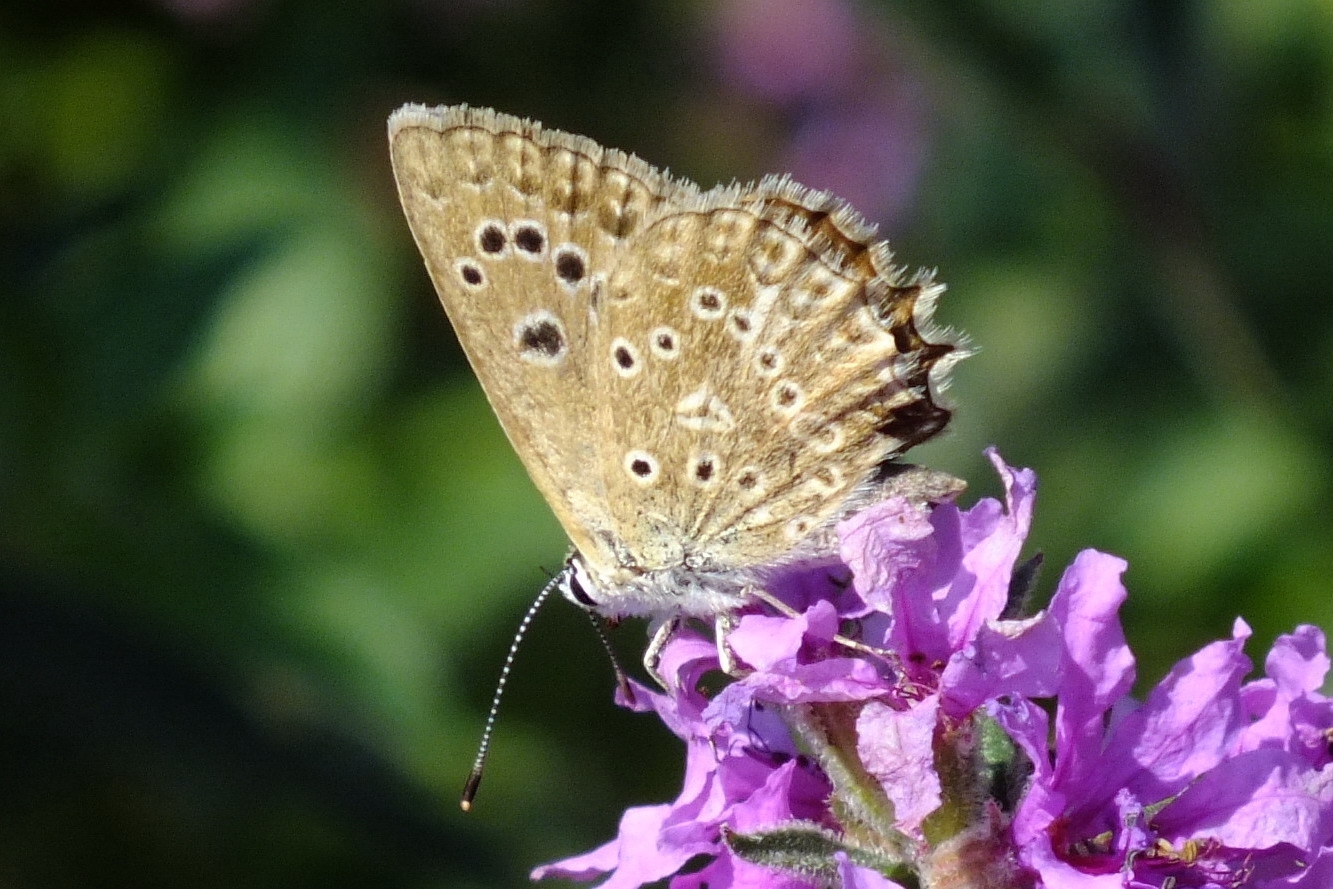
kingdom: Animalia
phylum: Arthropoda
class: Insecta
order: Lepidoptera
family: Lycaenidae
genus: Polyommatus
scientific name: Polyommatus daphnis
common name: Meleager's blue
